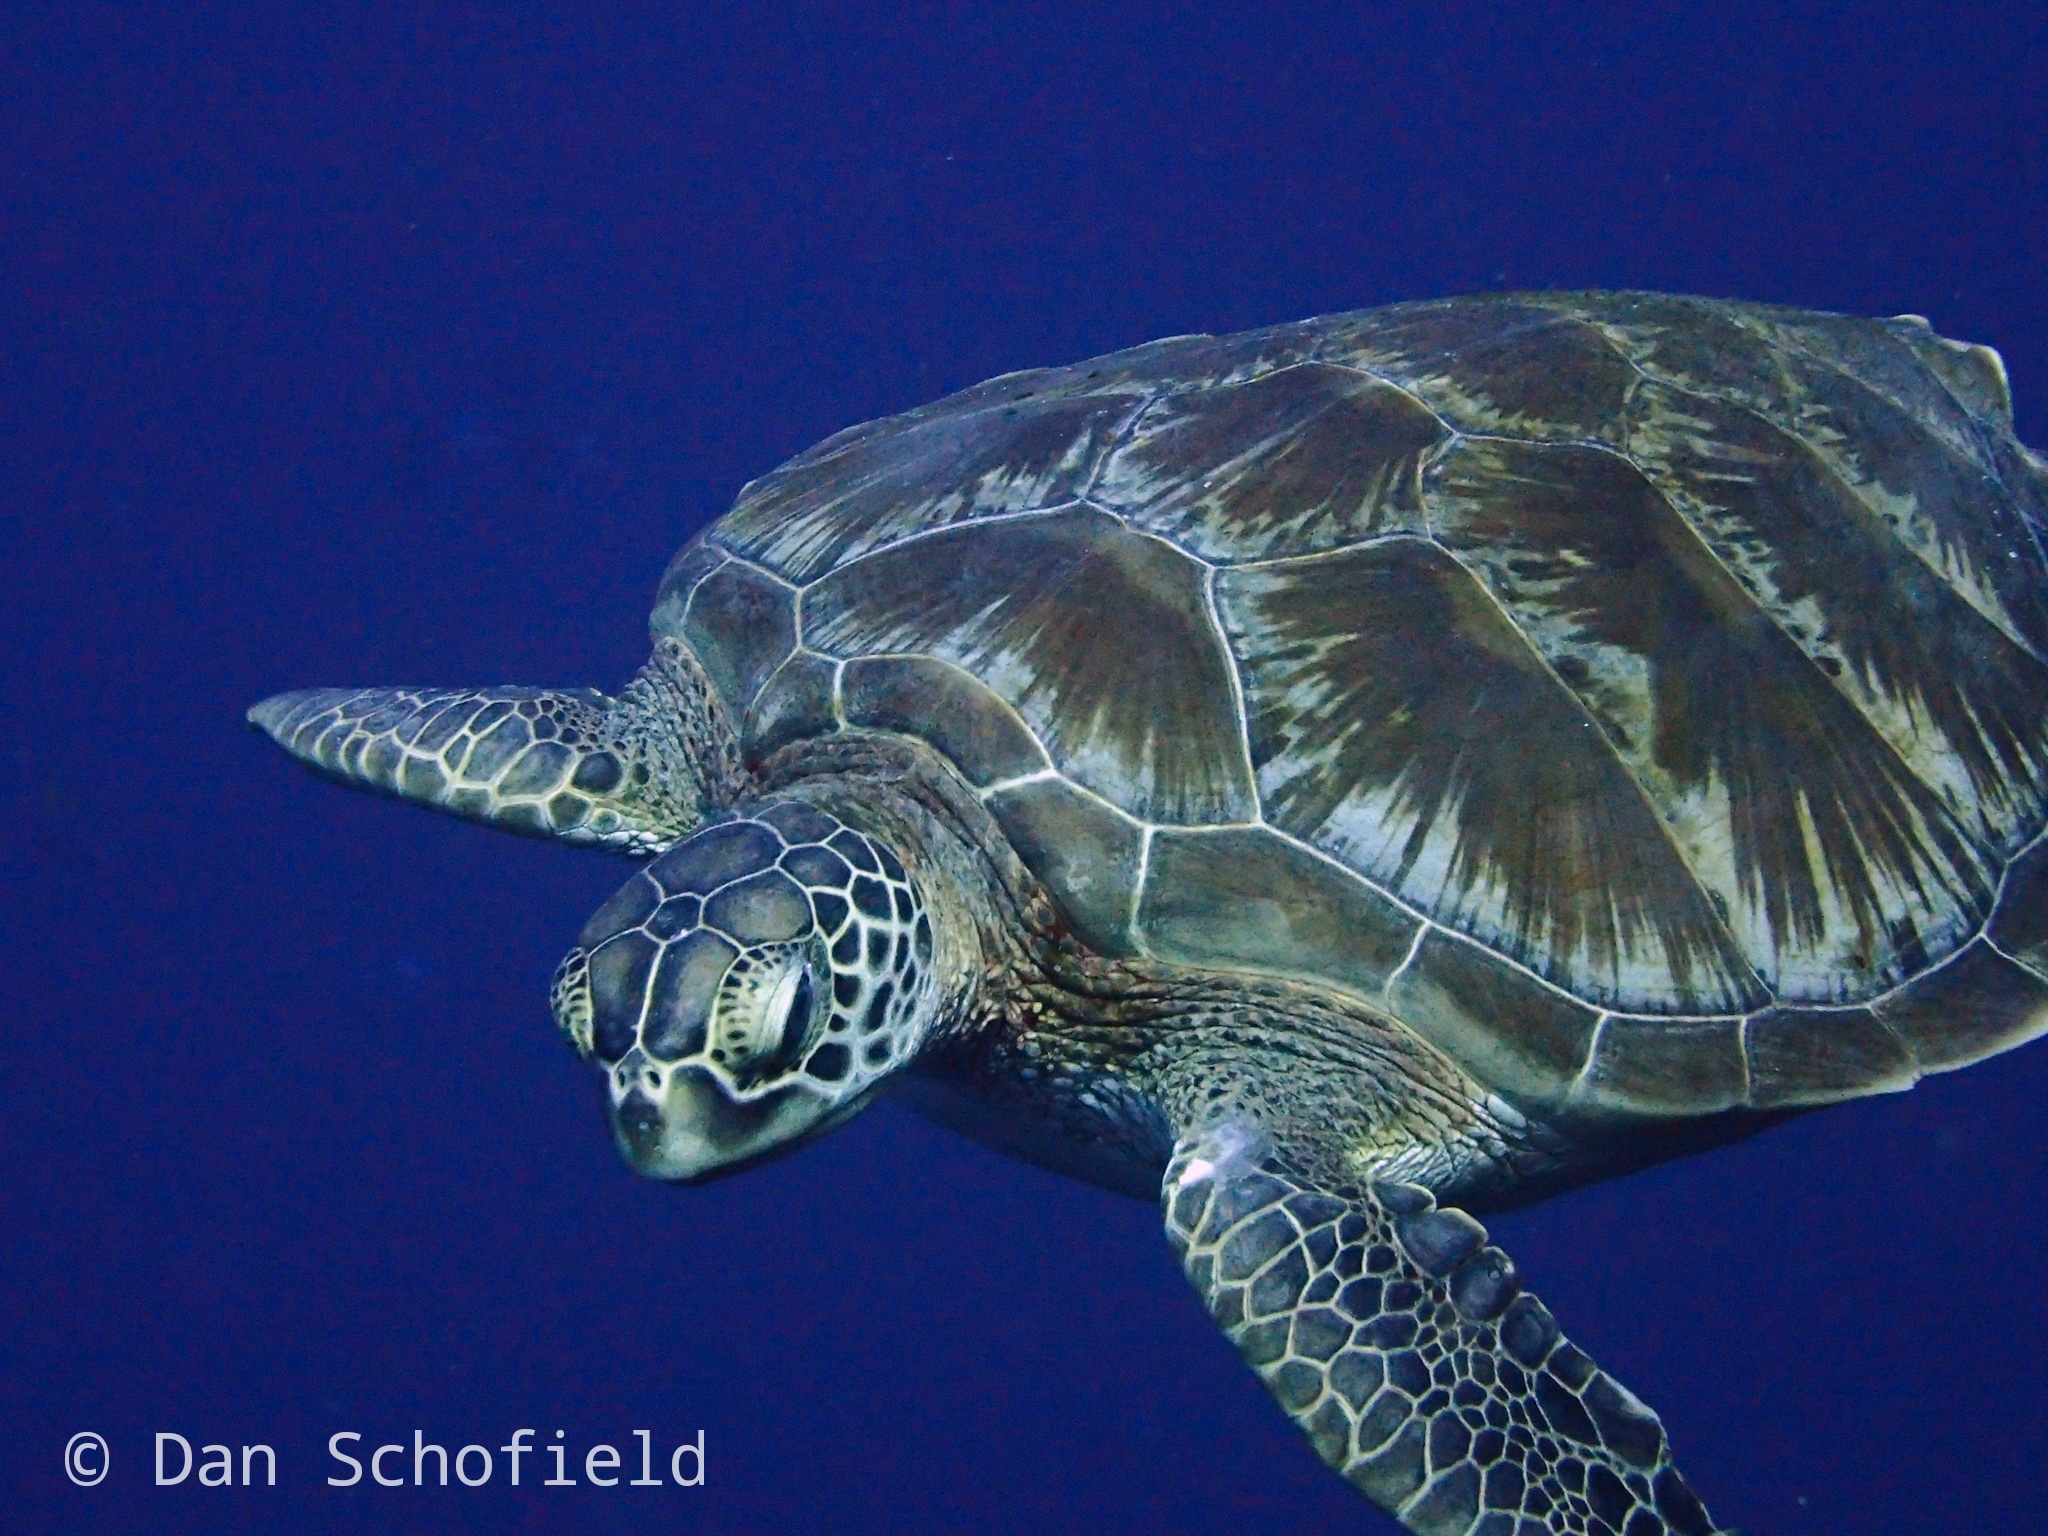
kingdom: Animalia
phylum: Chordata
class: Testudines
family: Cheloniidae
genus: Chelonia
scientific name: Chelonia mydas
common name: Green turtle
